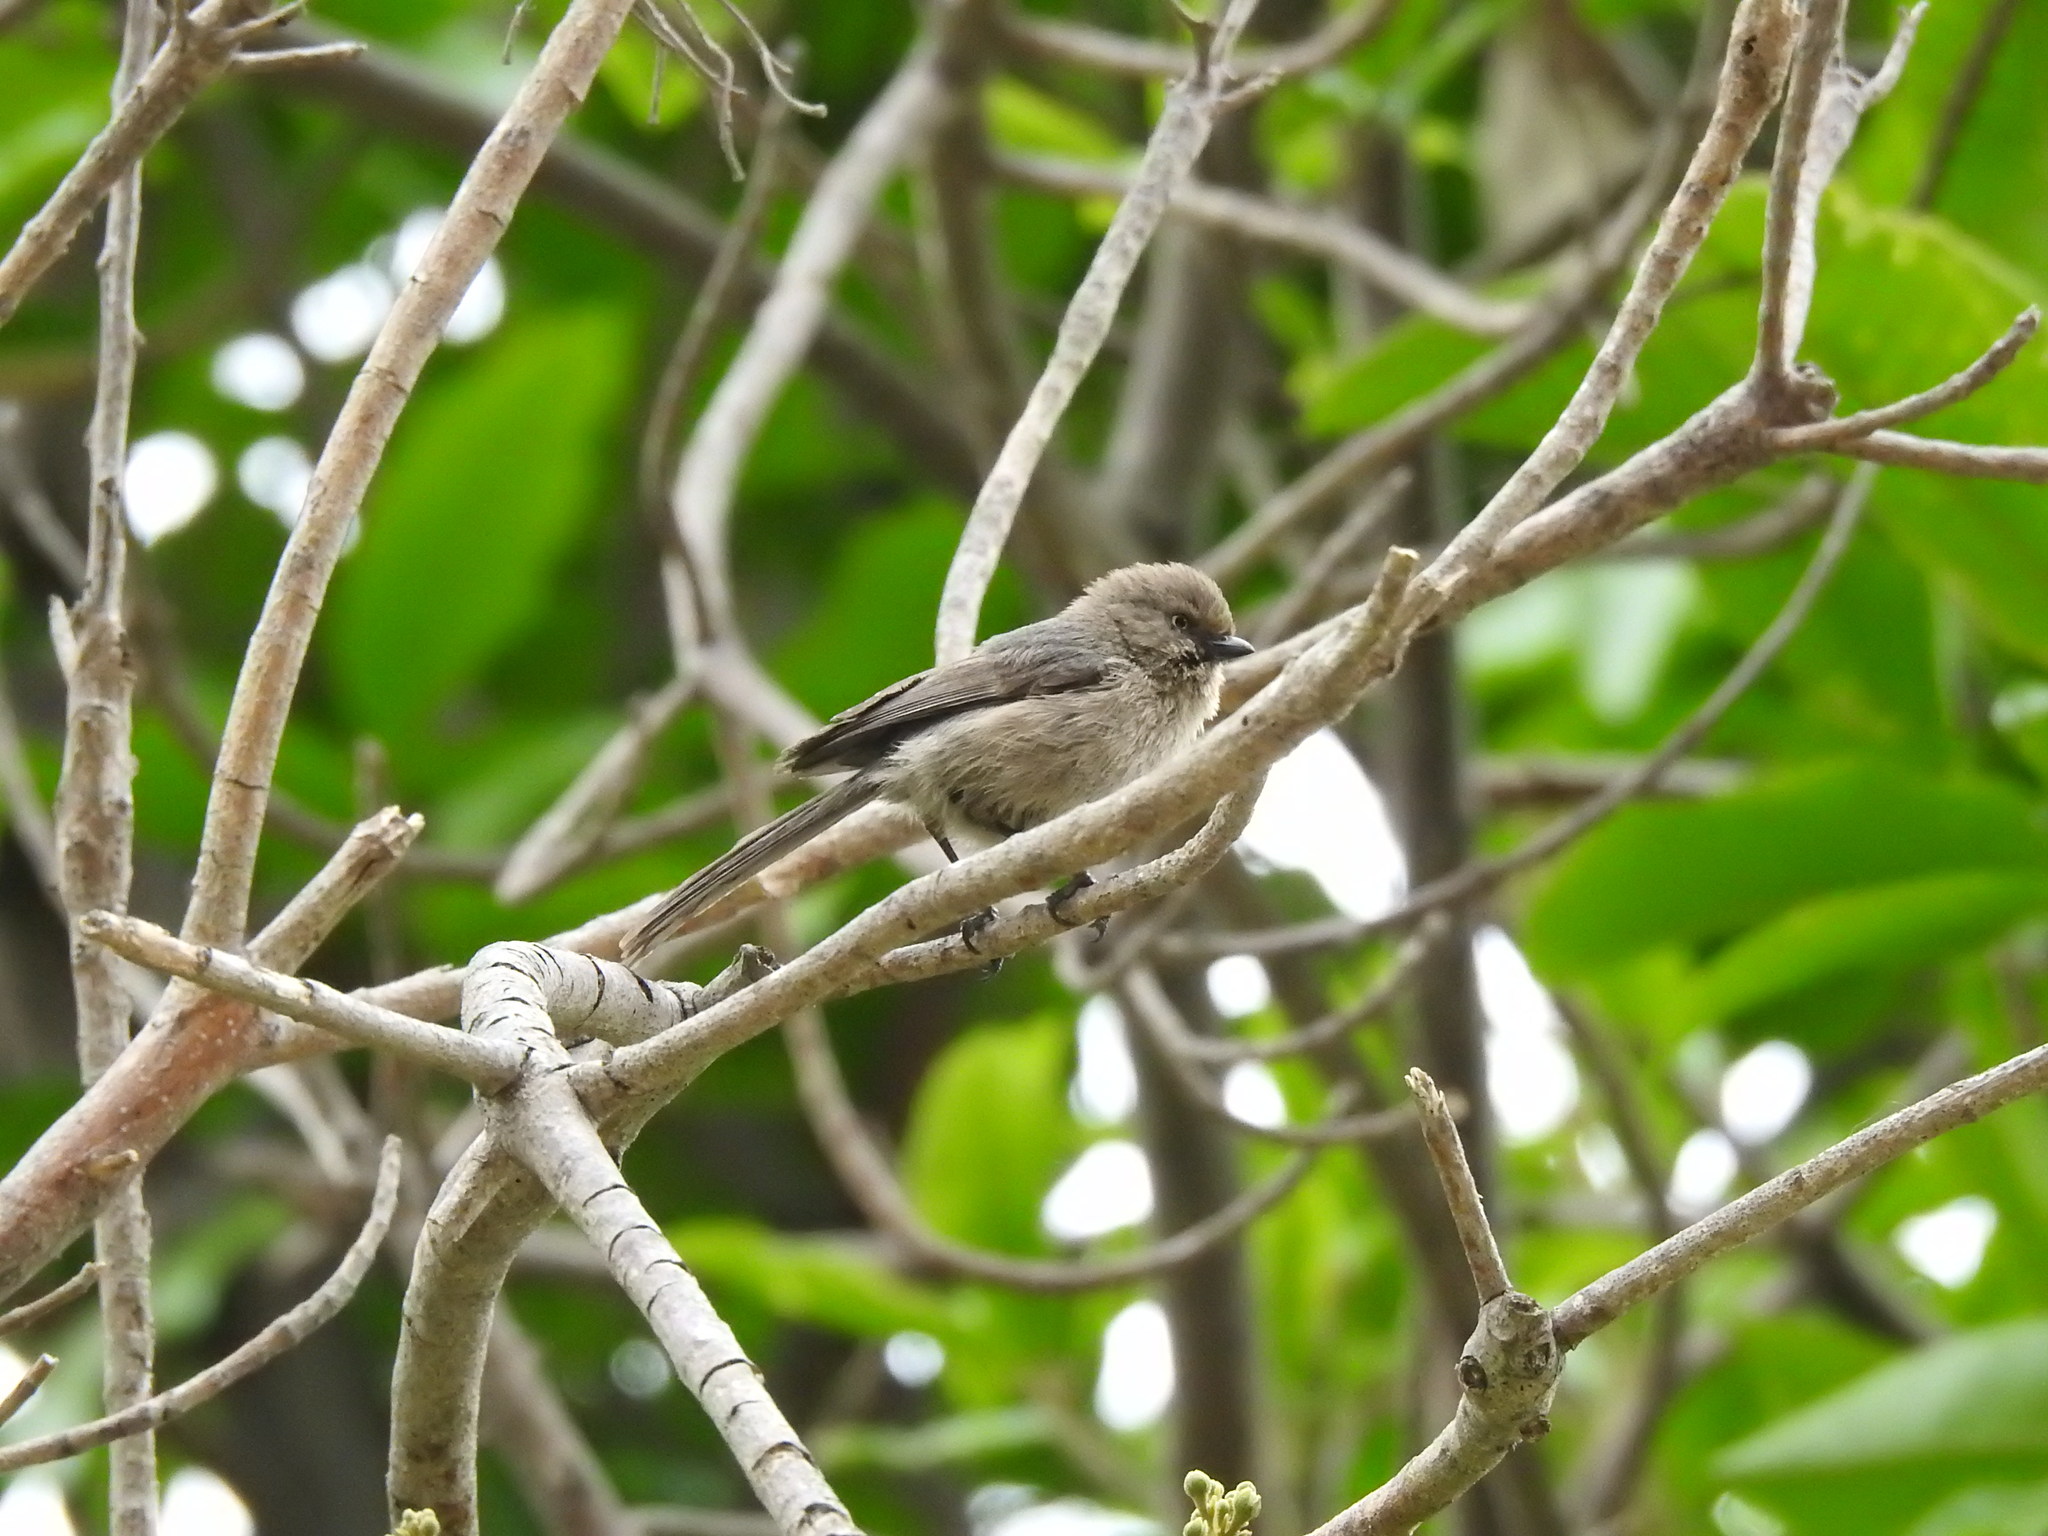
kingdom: Animalia
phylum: Chordata
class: Aves
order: Passeriformes
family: Aegithalidae
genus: Psaltriparus
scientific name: Psaltriparus minimus
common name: American bushtit
